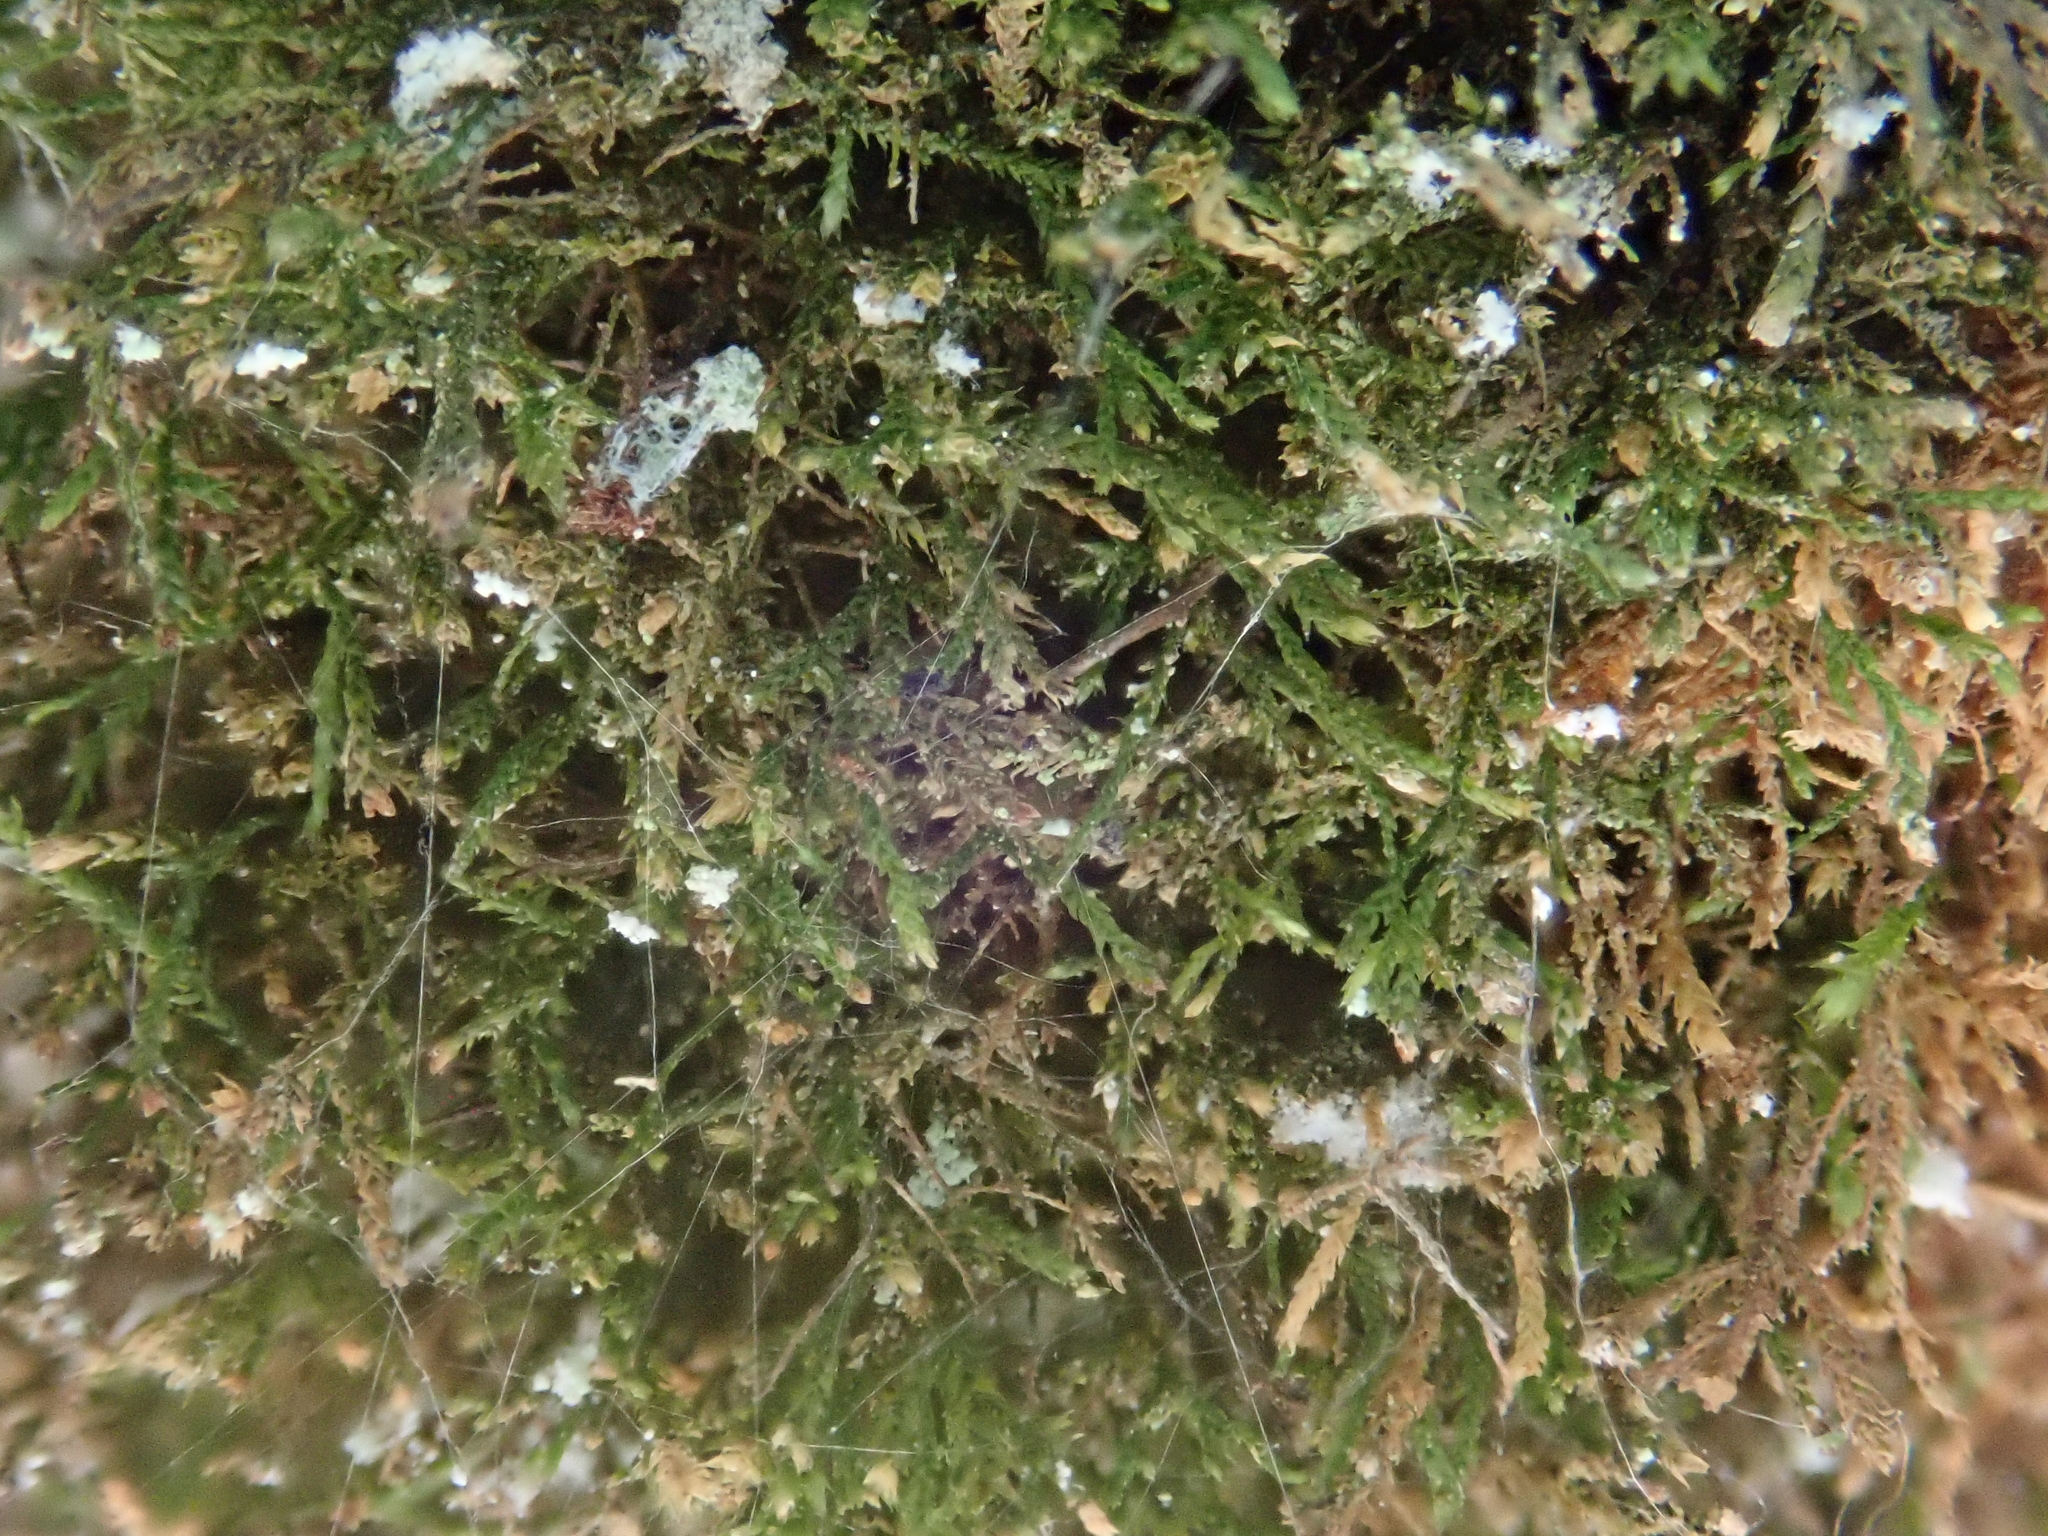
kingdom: Plantae
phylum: Bryophyta
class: Bryopsida
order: Hypnales
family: Lembophyllaceae
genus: Heterocladium
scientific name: Heterocladium heteropterum
